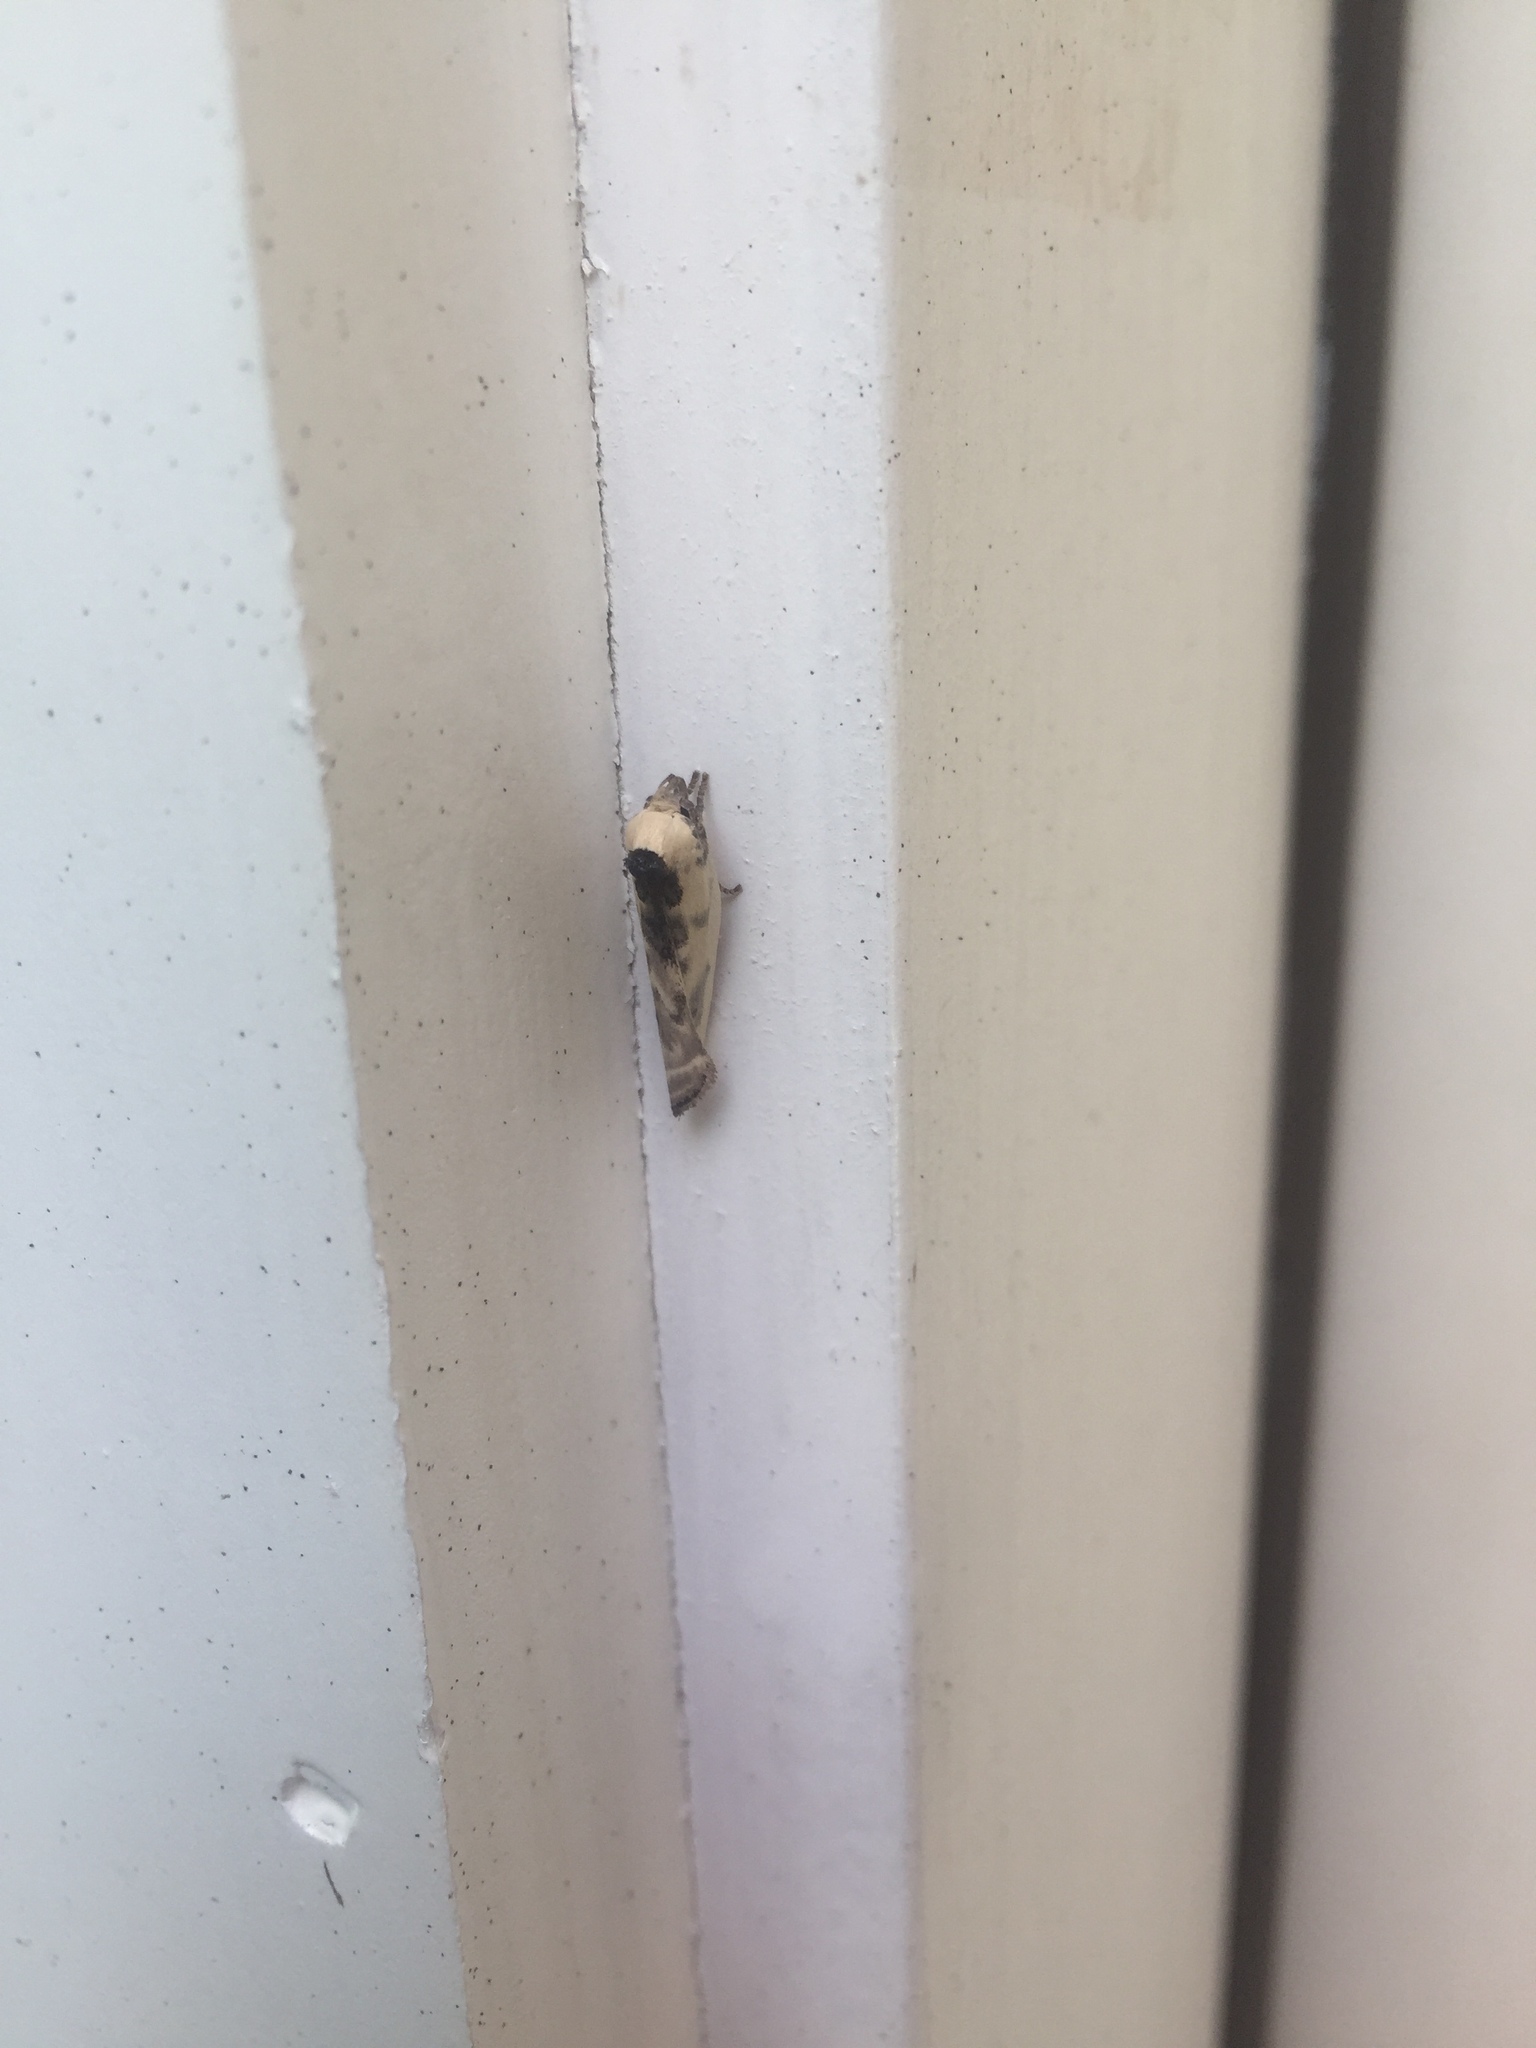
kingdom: Animalia
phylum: Arthropoda
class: Insecta
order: Lepidoptera
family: Depressariidae
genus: Antaeotricha
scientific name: Antaeotricha schlaegeri
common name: Schlaeger's fruitworm moth
